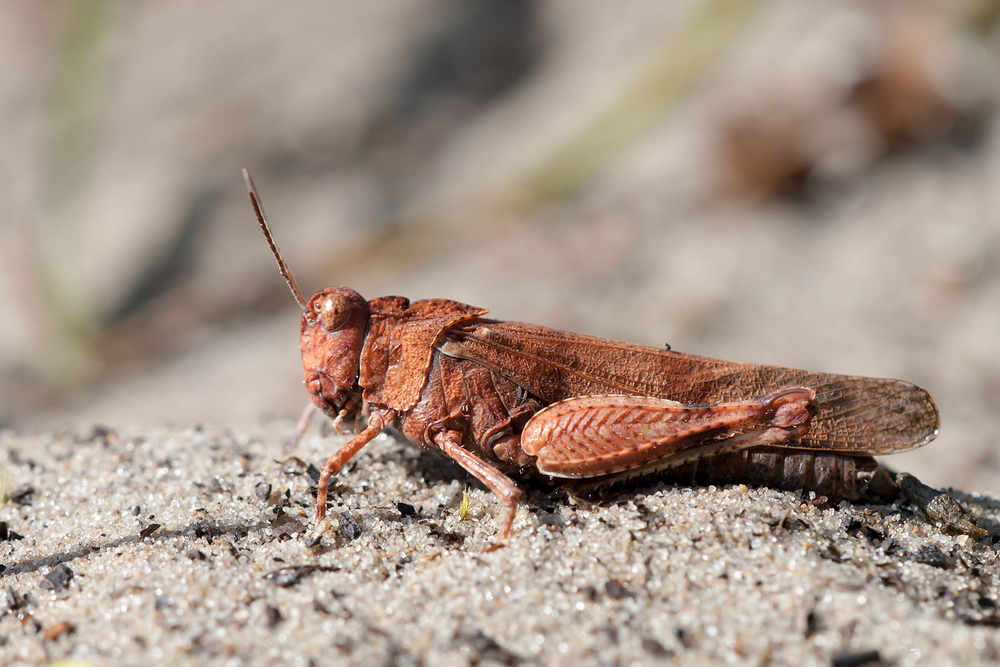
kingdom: Animalia
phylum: Arthropoda
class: Insecta
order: Orthoptera
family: Acrididae
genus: Oedipoda
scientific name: Oedipoda caerulescens
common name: Blue-winged grasshopper
